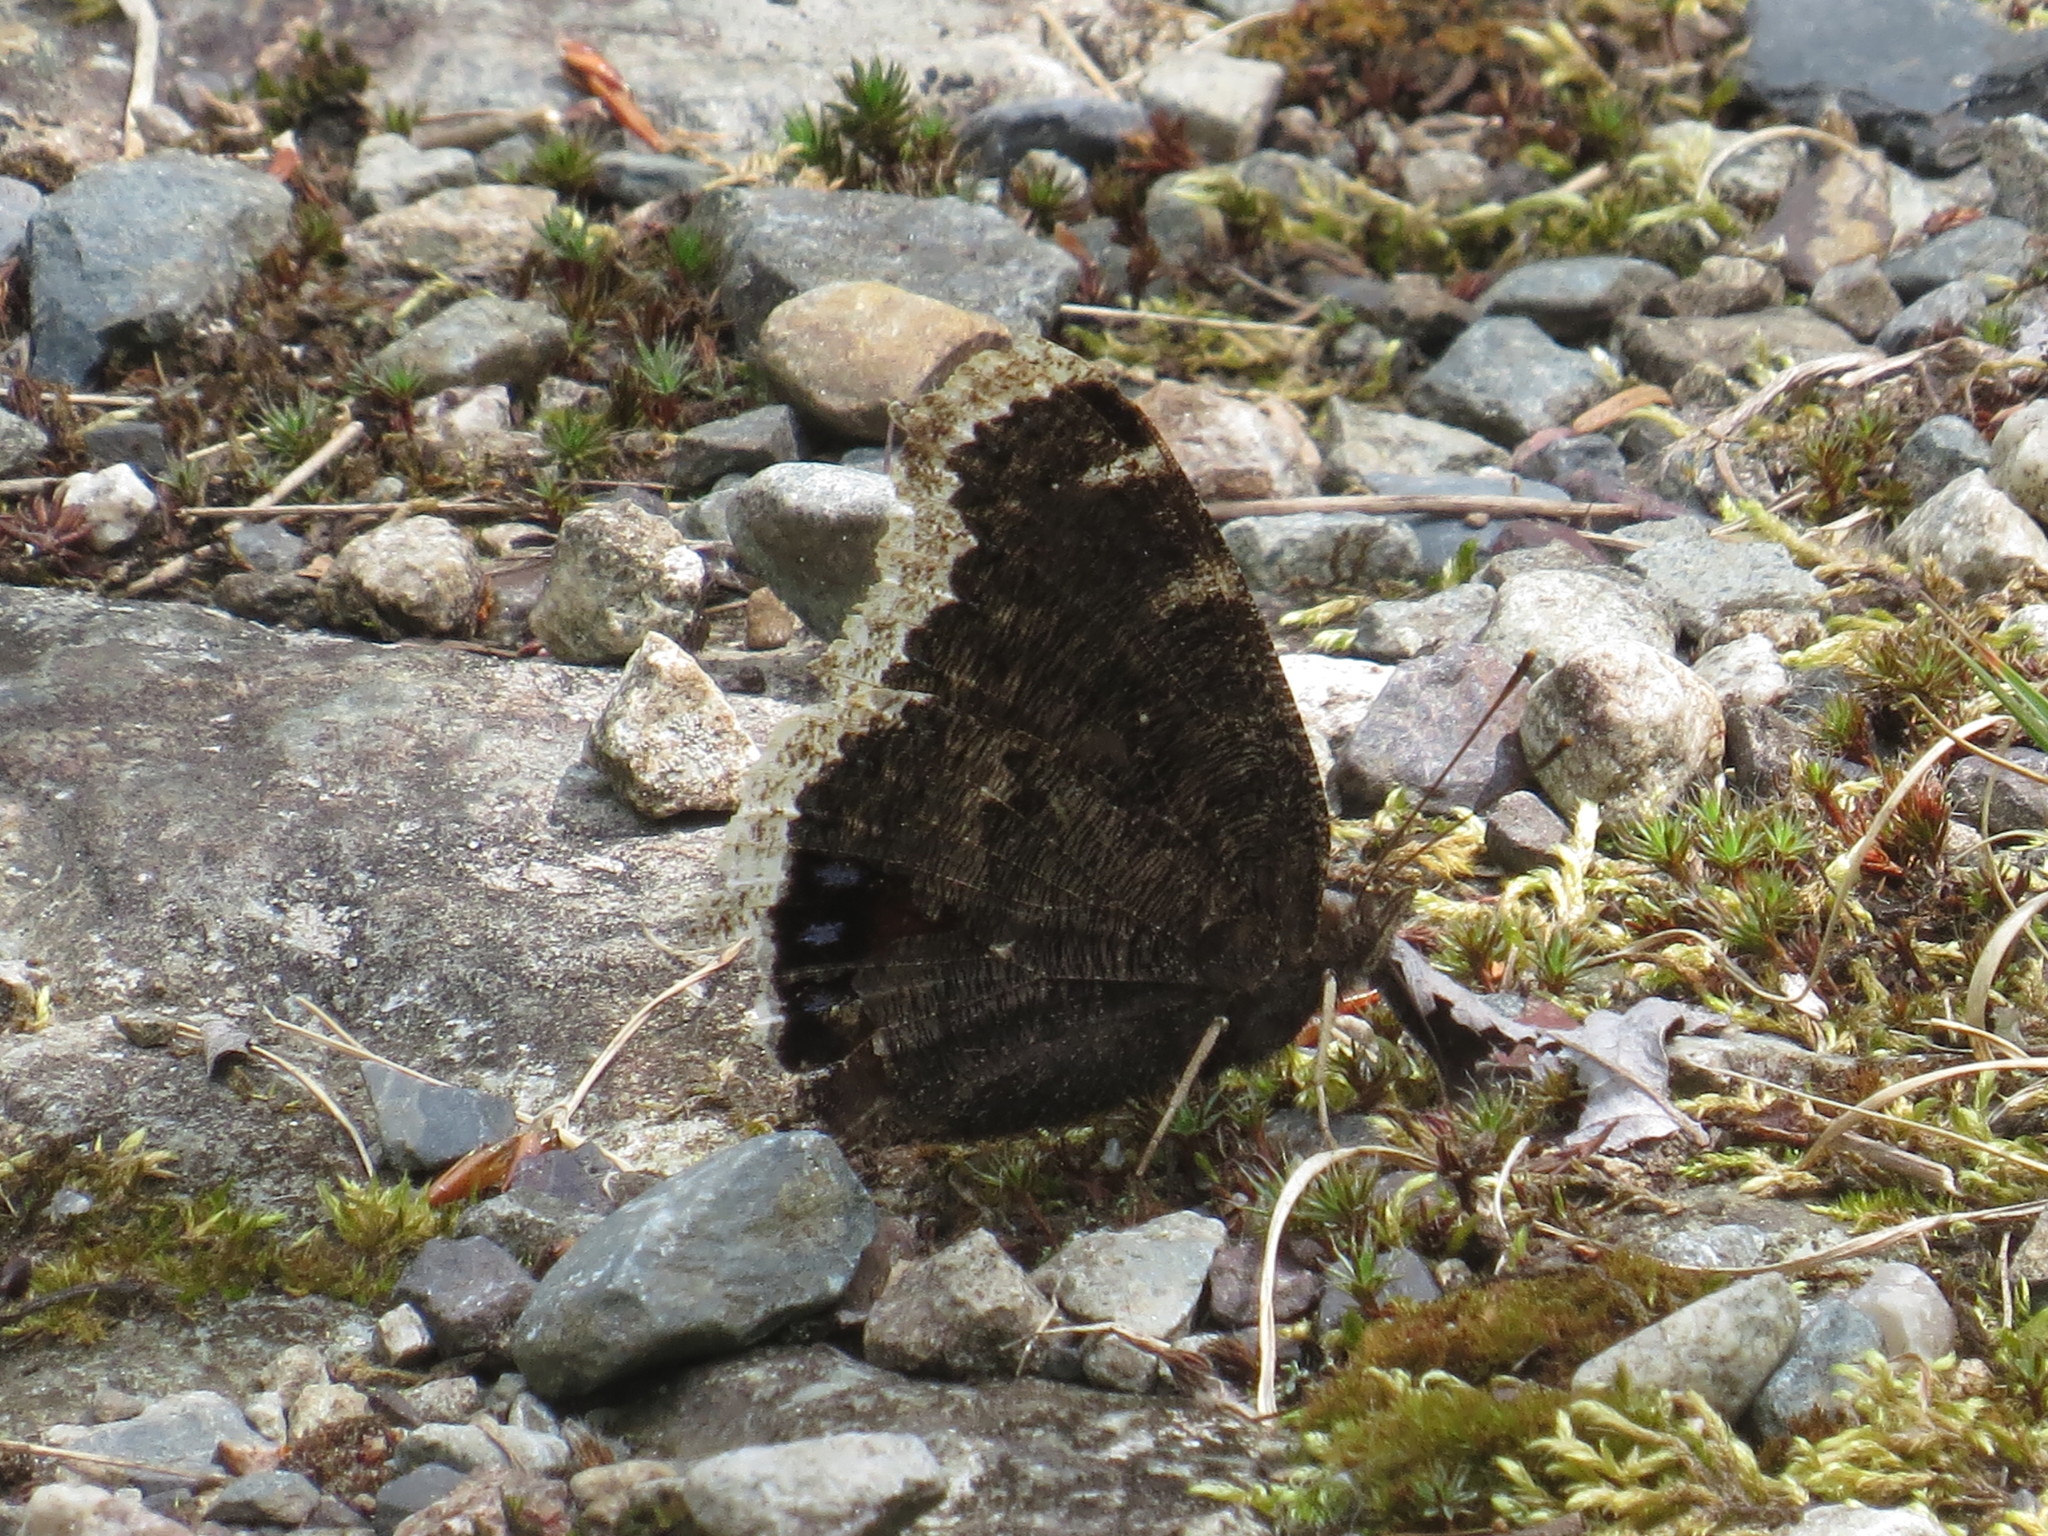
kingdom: Animalia
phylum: Arthropoda
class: Insecta
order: Lepidoptera
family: Nymphalidae
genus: Nymphalis
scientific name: Nymphalis antiopa
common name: Camberwell beauty
